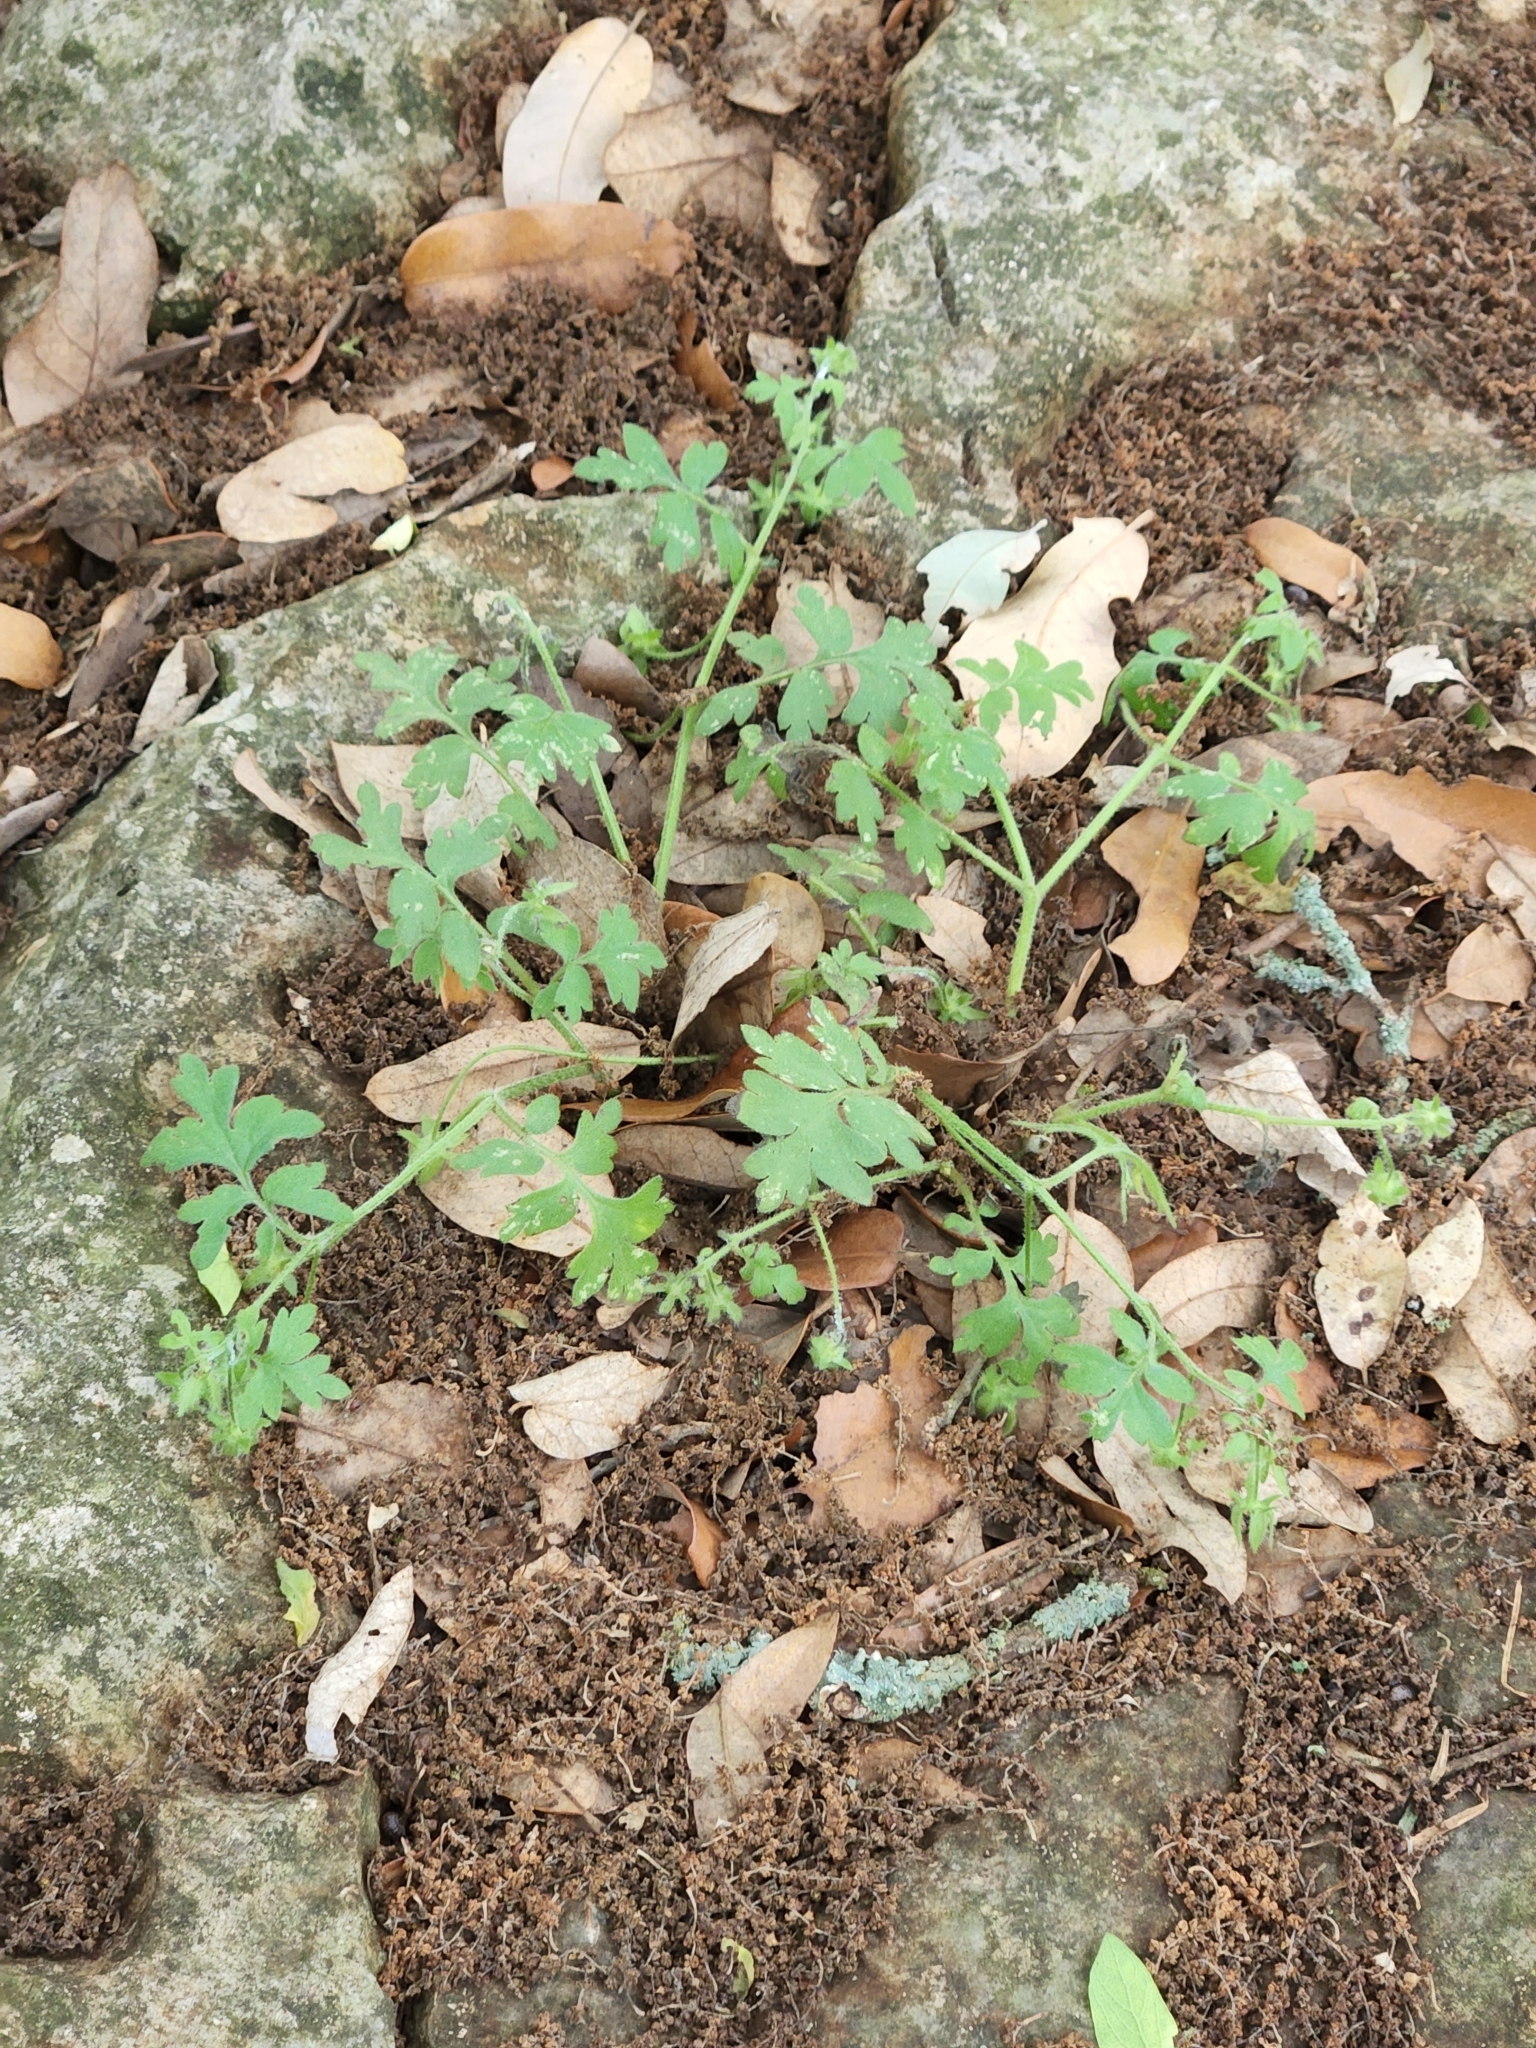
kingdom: Plantae
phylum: Tracheophyta
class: Magnoliopsida
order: Boraginales
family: Hydrophyllaceae
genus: Nemophila
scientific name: Nemophila phacelioides
